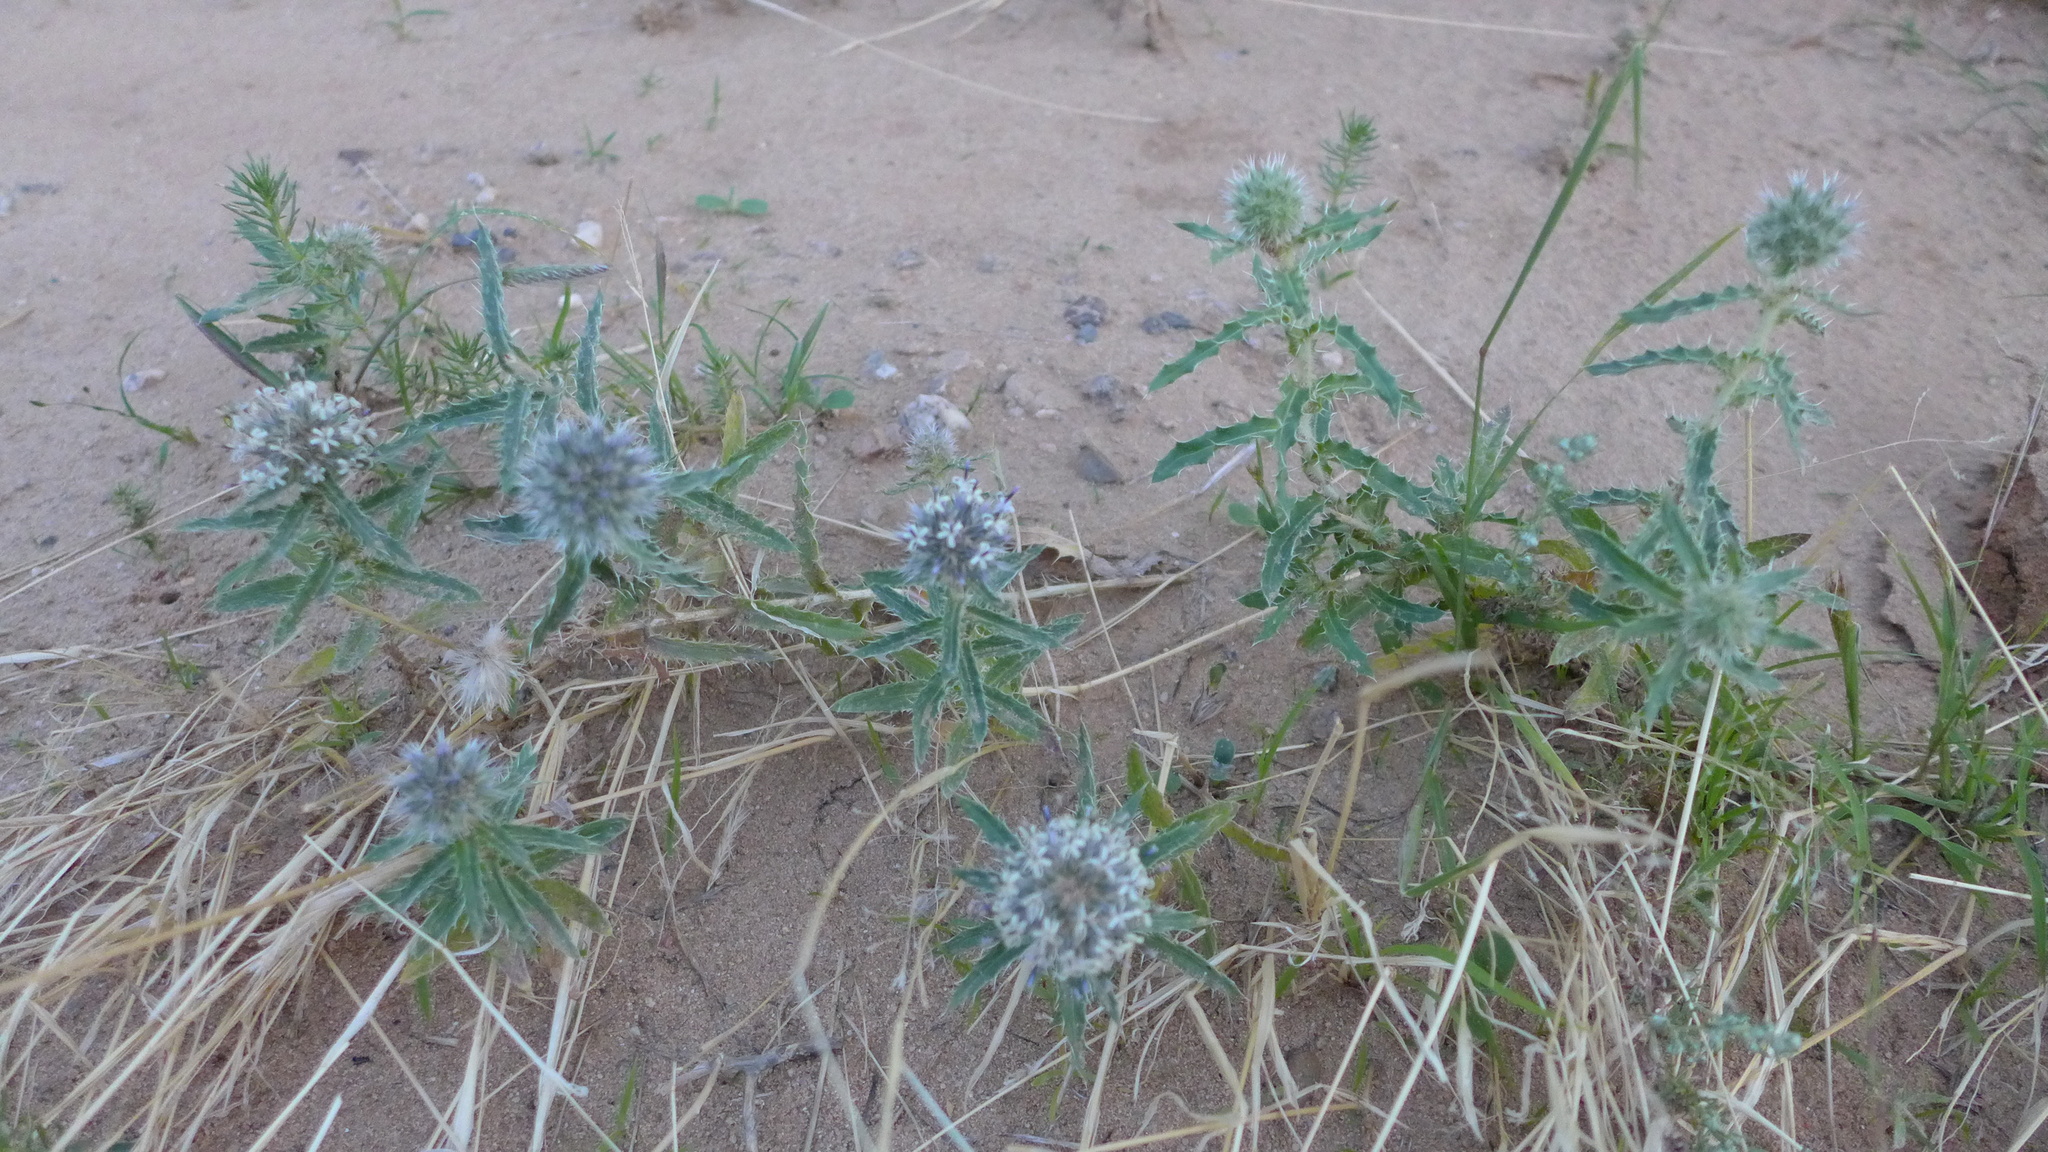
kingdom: Plantae
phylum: Tracheophyta
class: Magnoliopsida
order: Asterales
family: Asteraceae
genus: Echinops
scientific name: Echinops gmelinii
